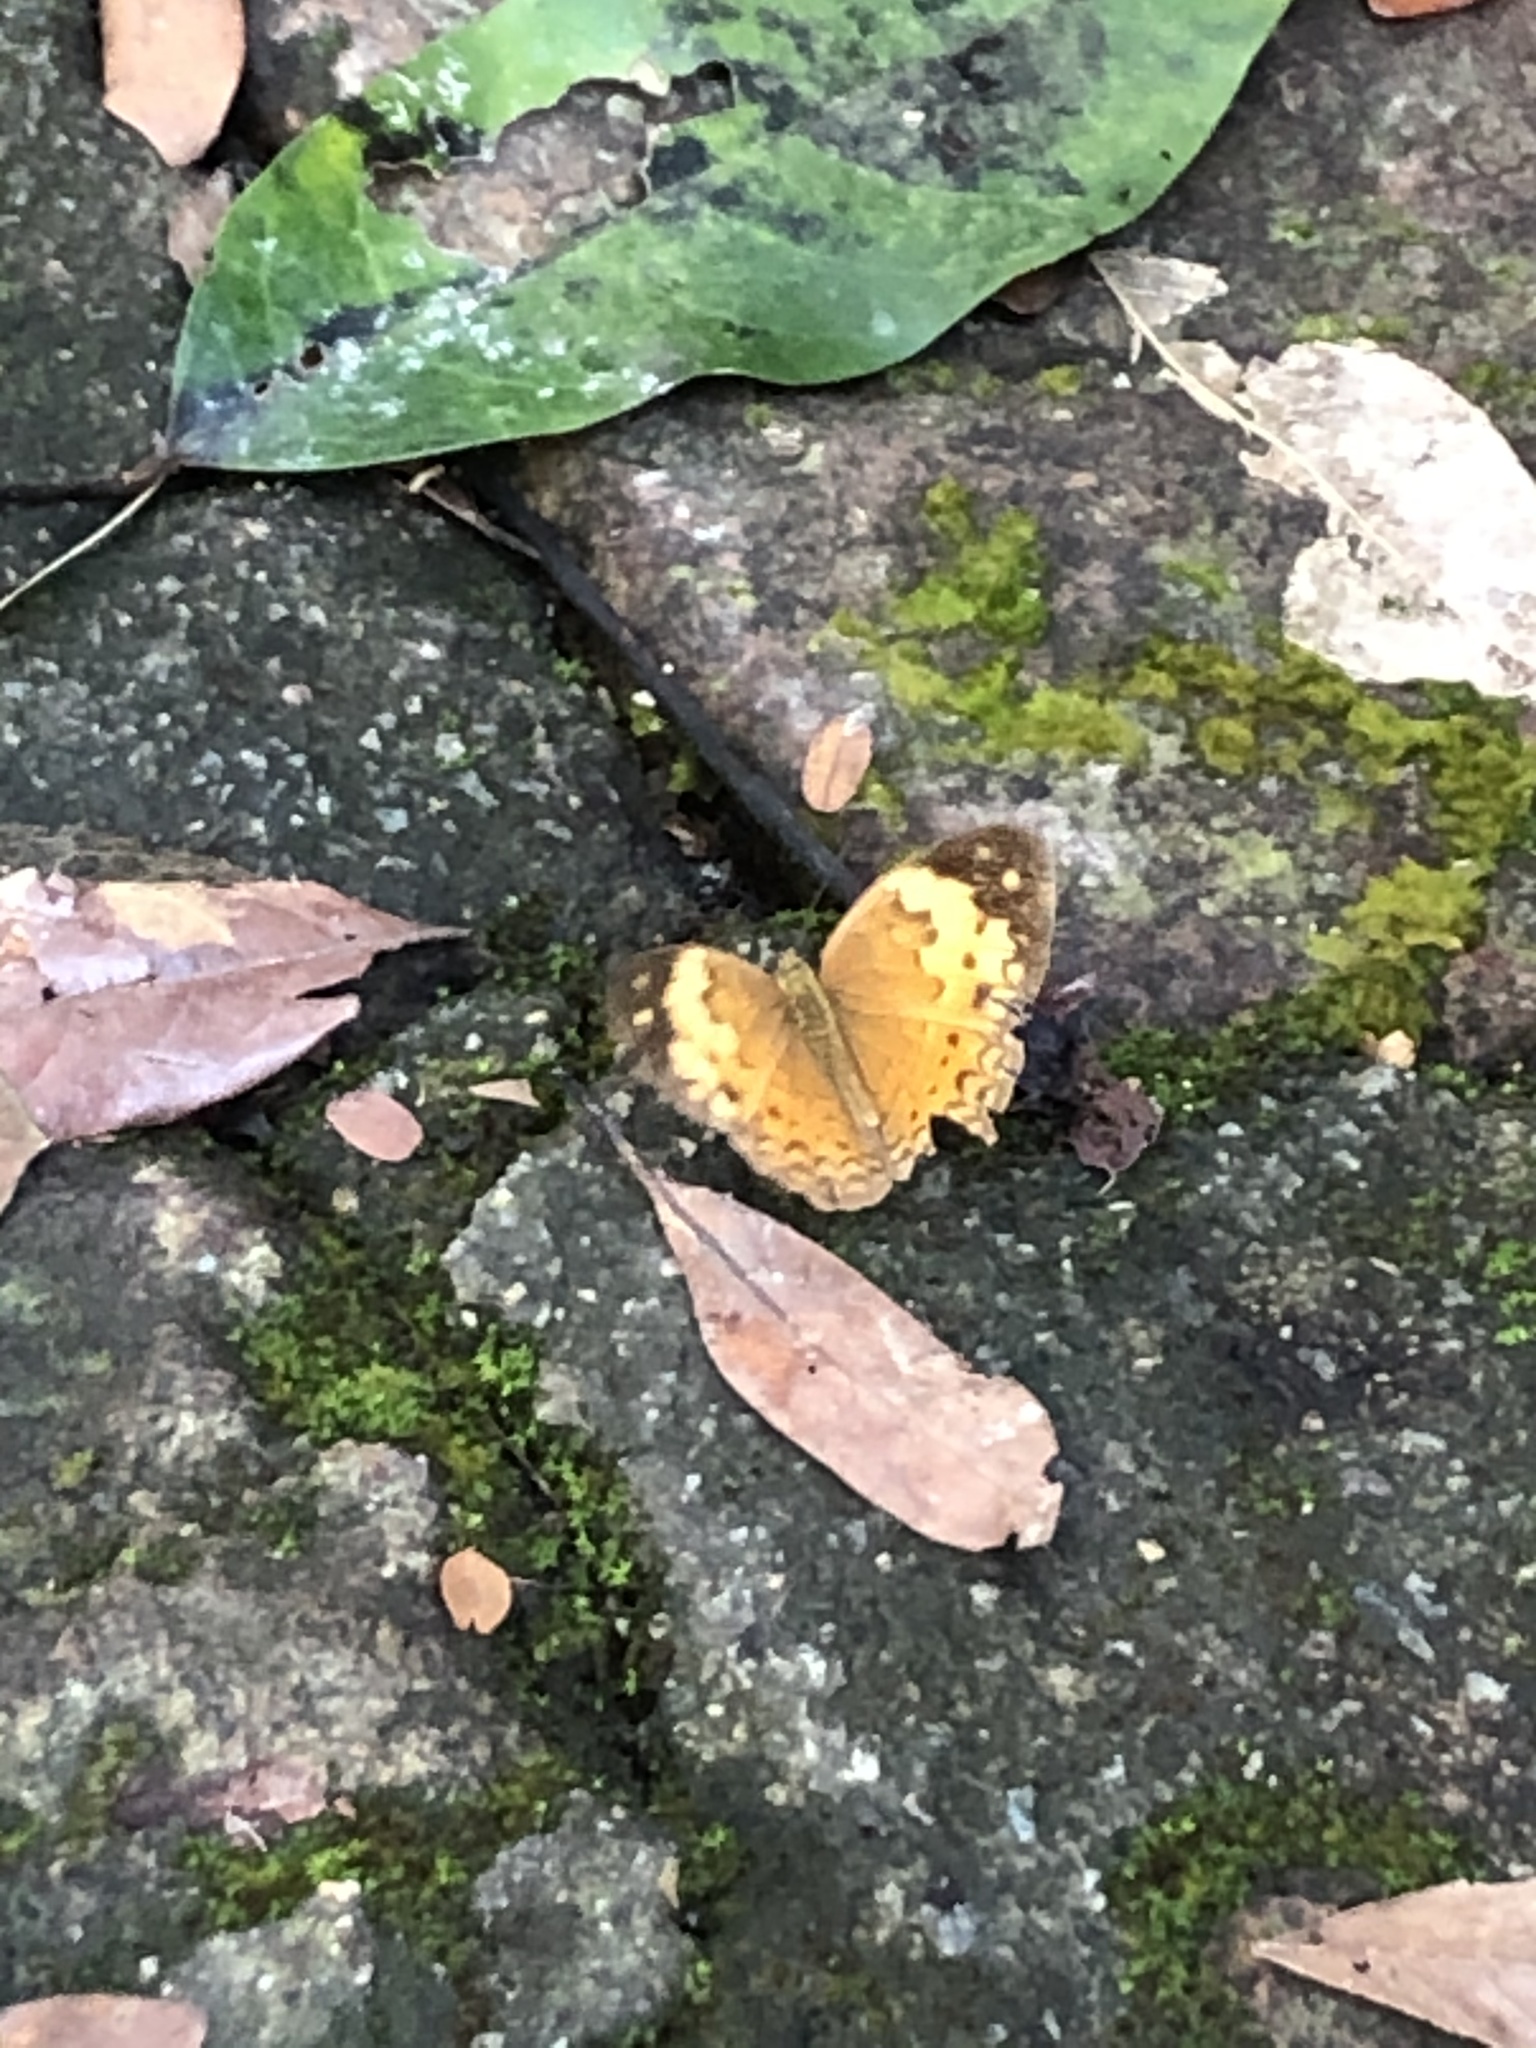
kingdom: Animalia
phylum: Arthropoda
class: Insecta
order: Lepidoptera
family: Nymphalidae
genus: Cupha
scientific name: Cupha erymanthis
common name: Rustic
